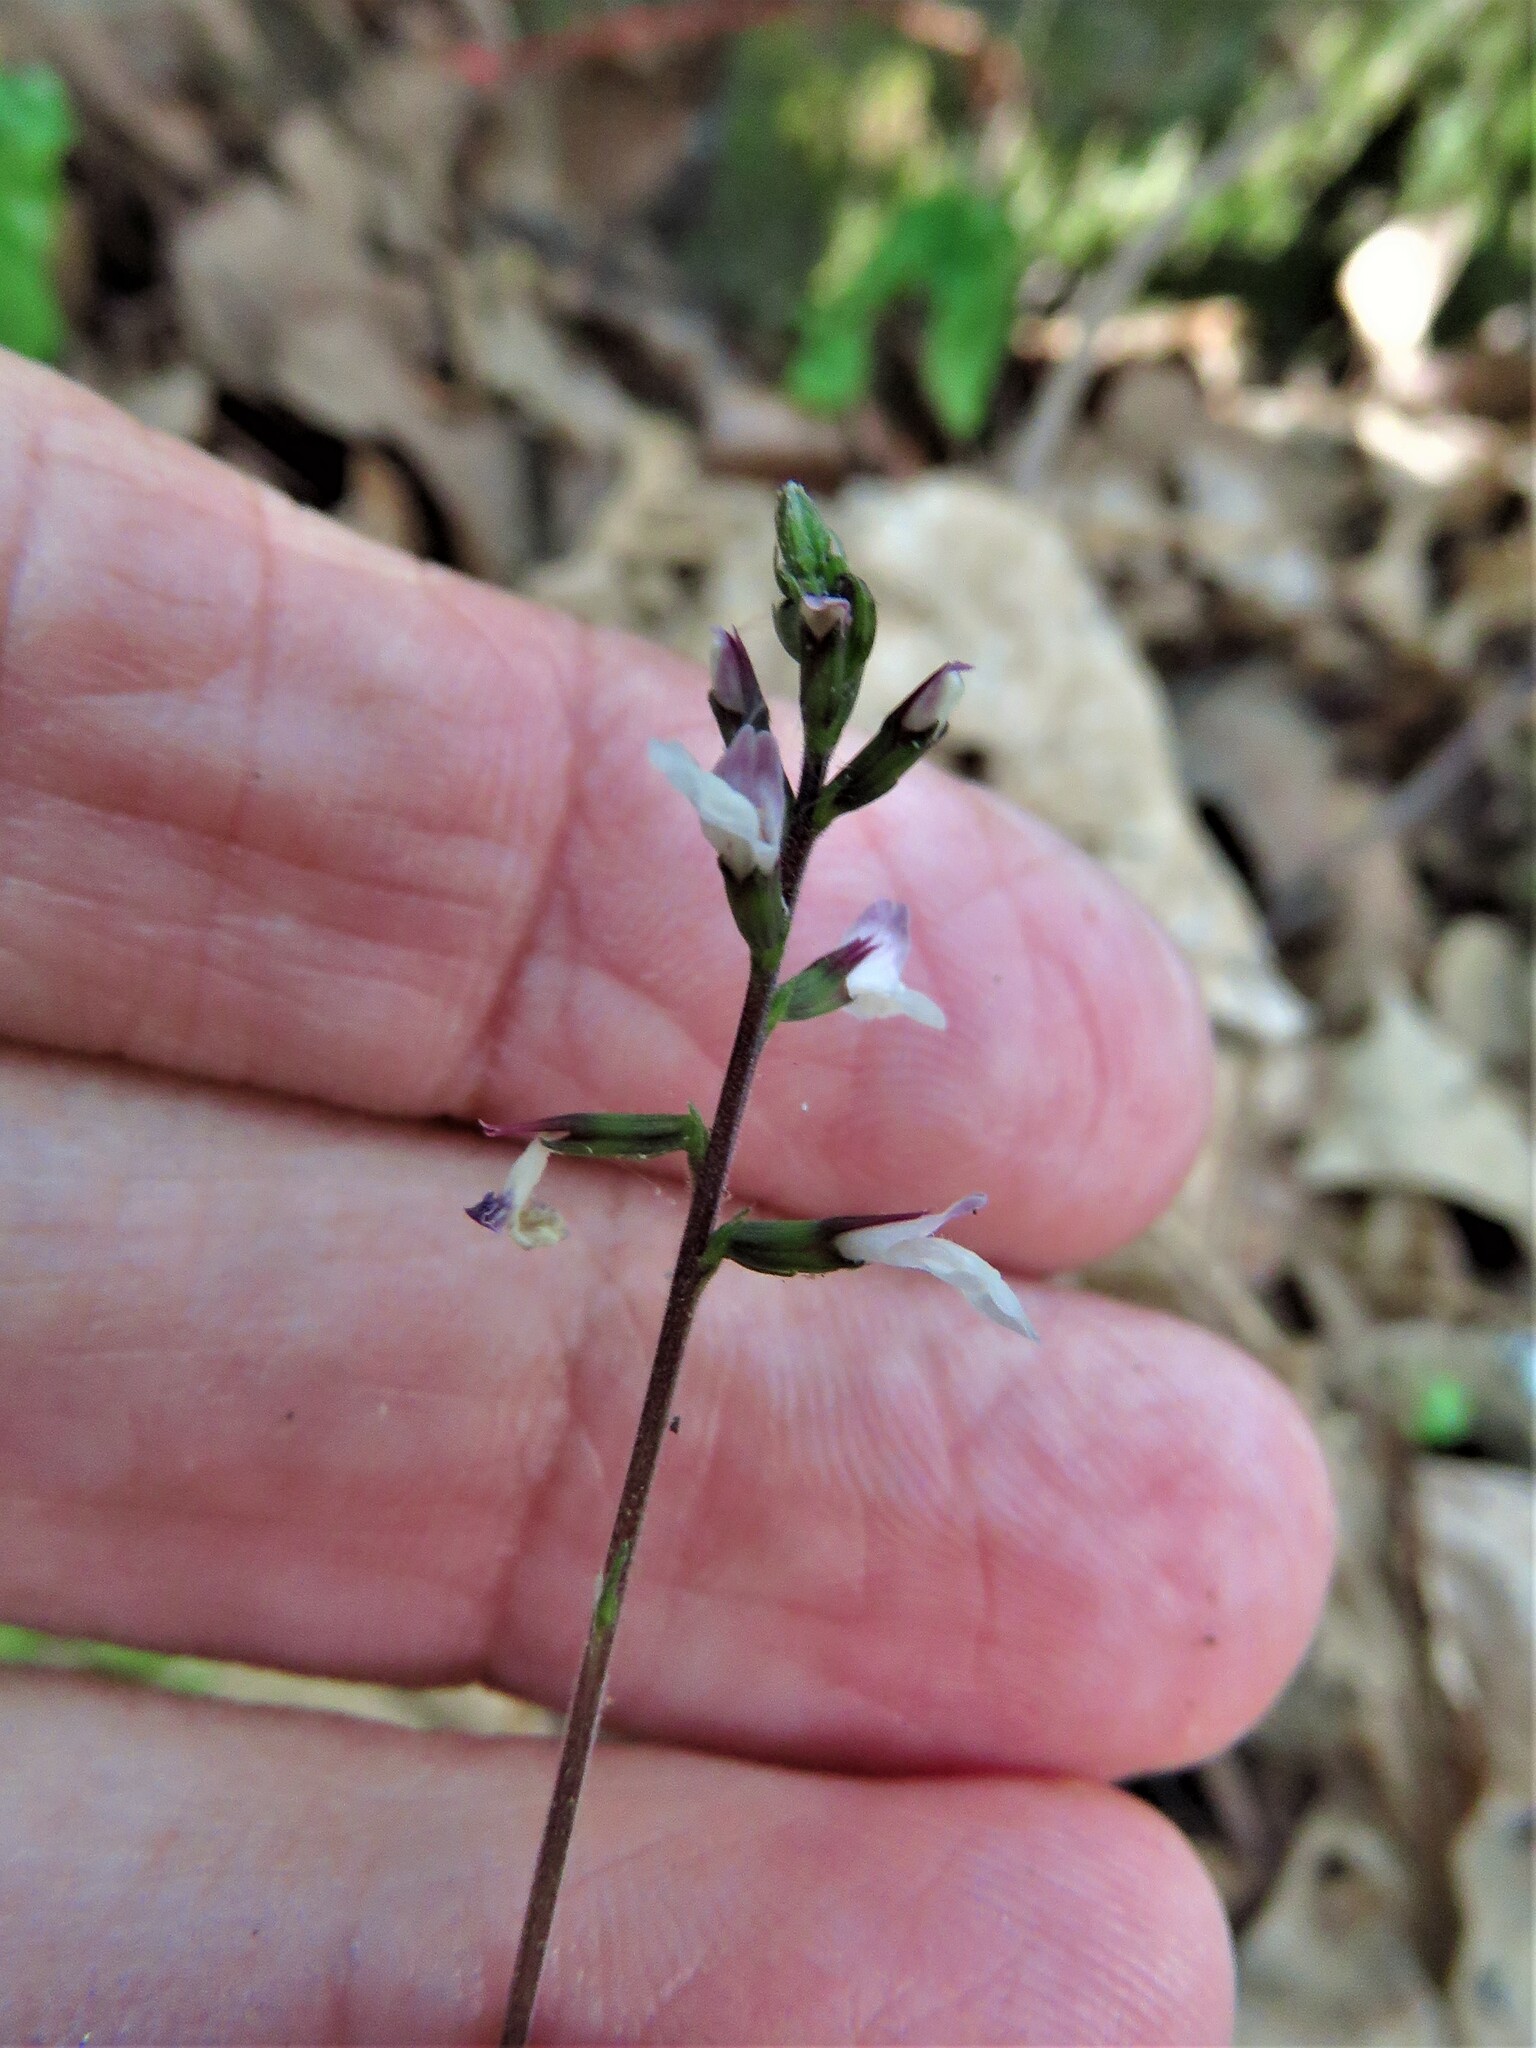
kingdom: Plantae
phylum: Tracheophyta
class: Magnoliopsida
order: Lamiales
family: Phrymaceae
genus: Phryma
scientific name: Phryma leptostachya
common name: American lopseed
